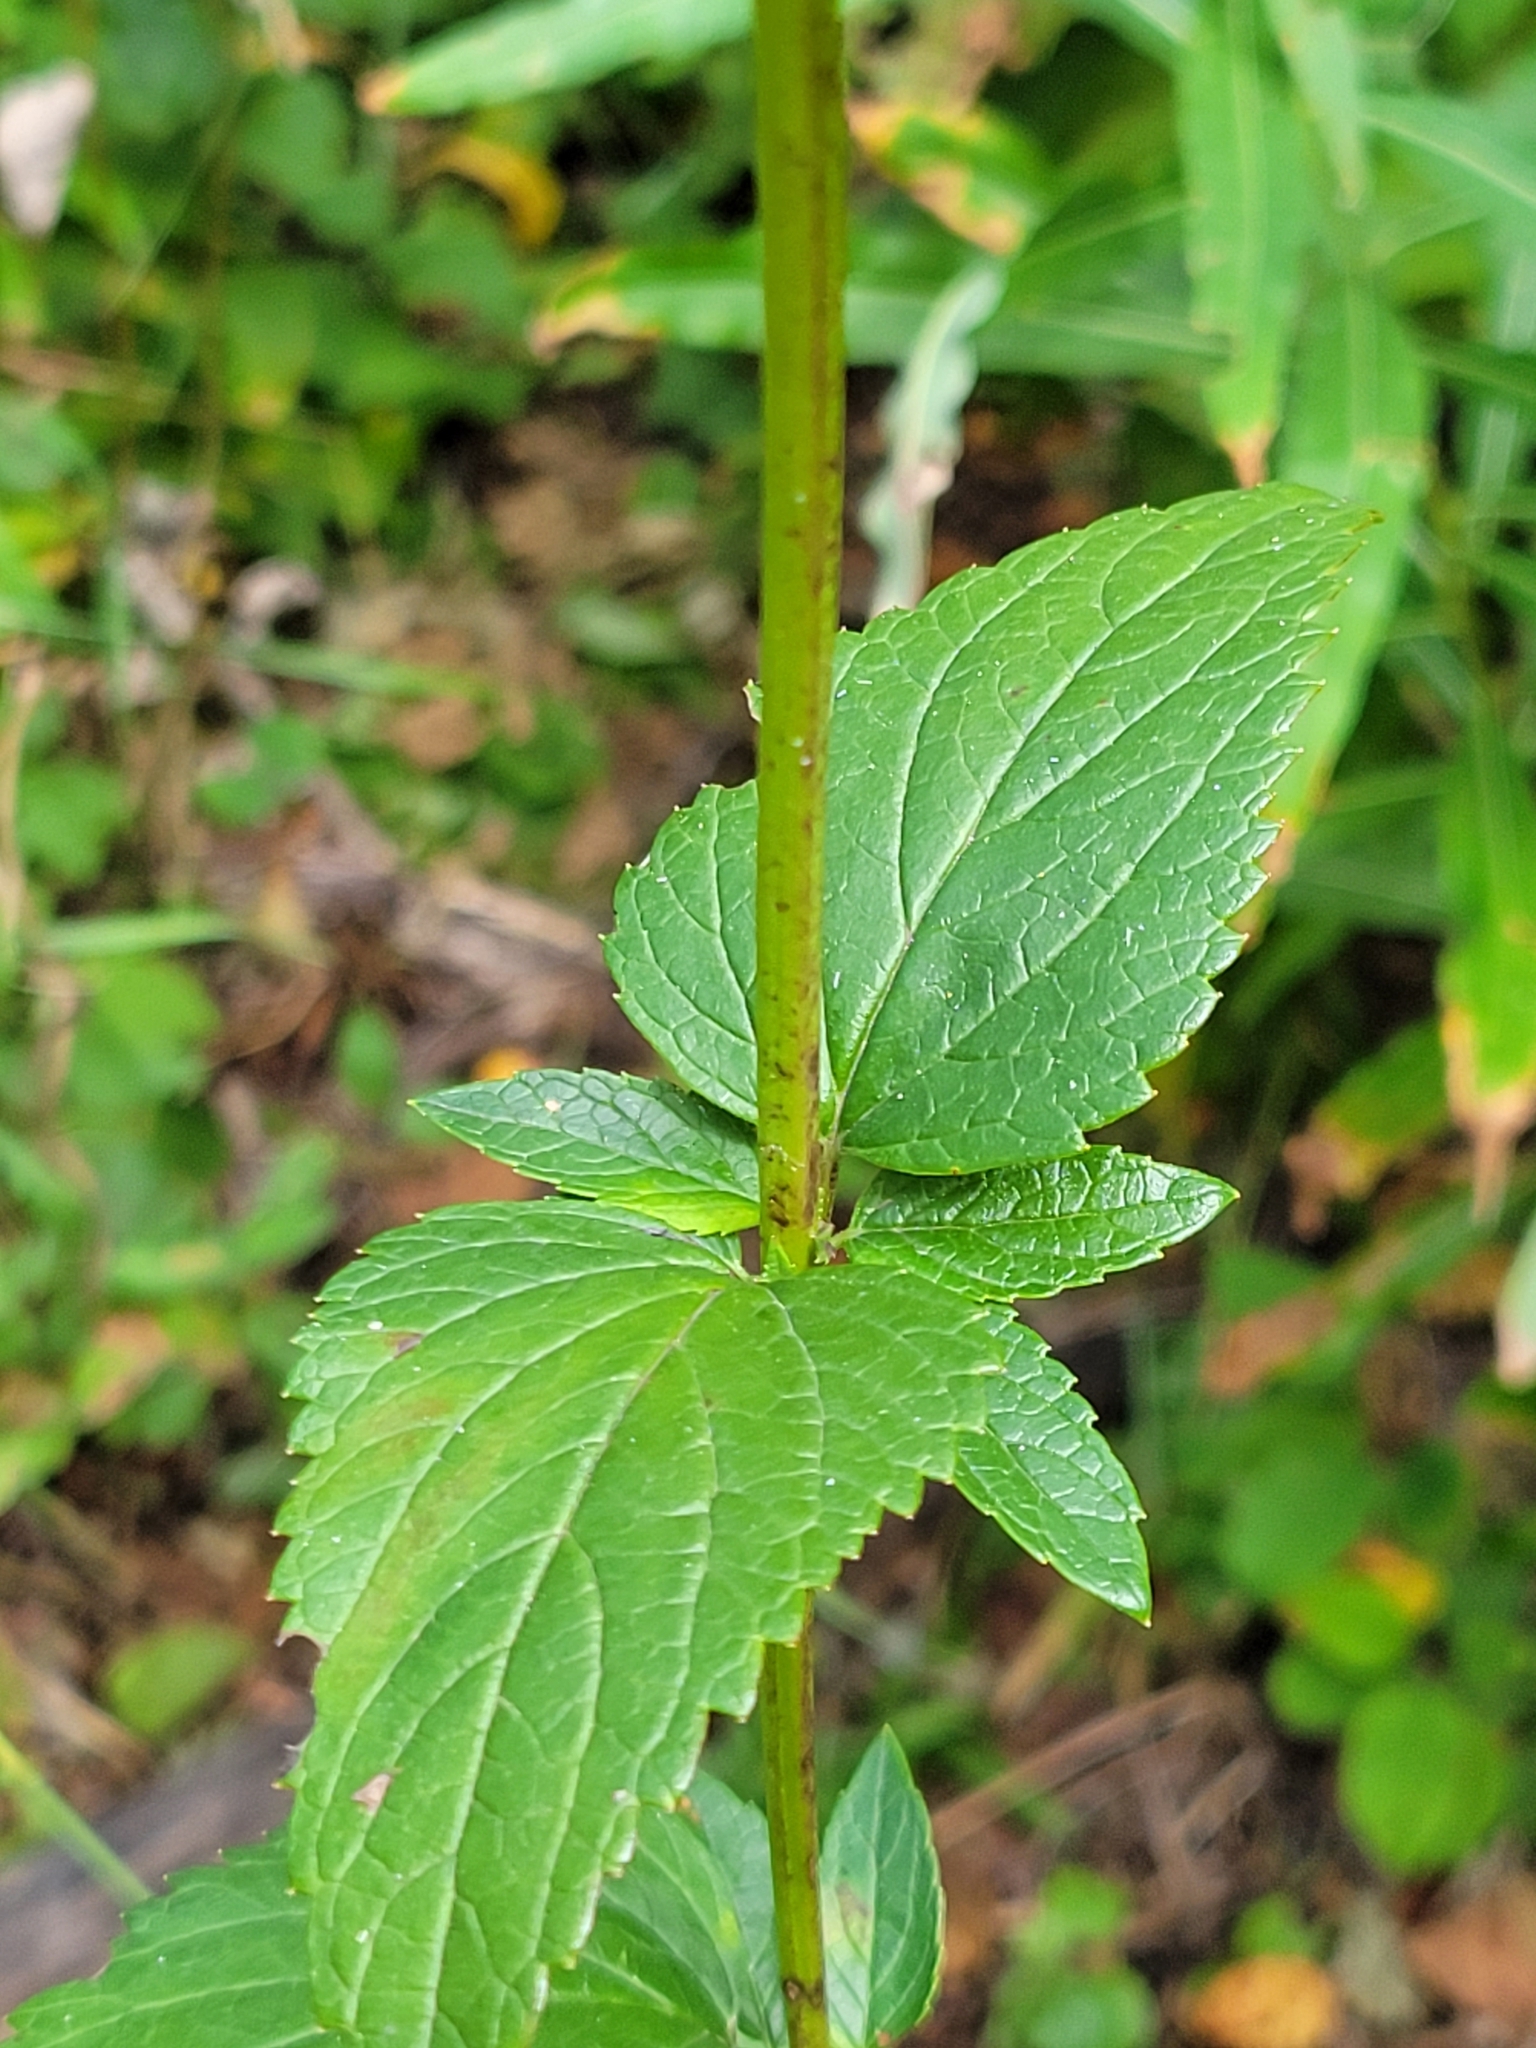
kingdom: Plantae
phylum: Tracheophyta
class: Magnoliopsida
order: Lamiales
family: Lamiaceae
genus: Agastache
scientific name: Agastache foeniculum
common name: Anise hyssop
